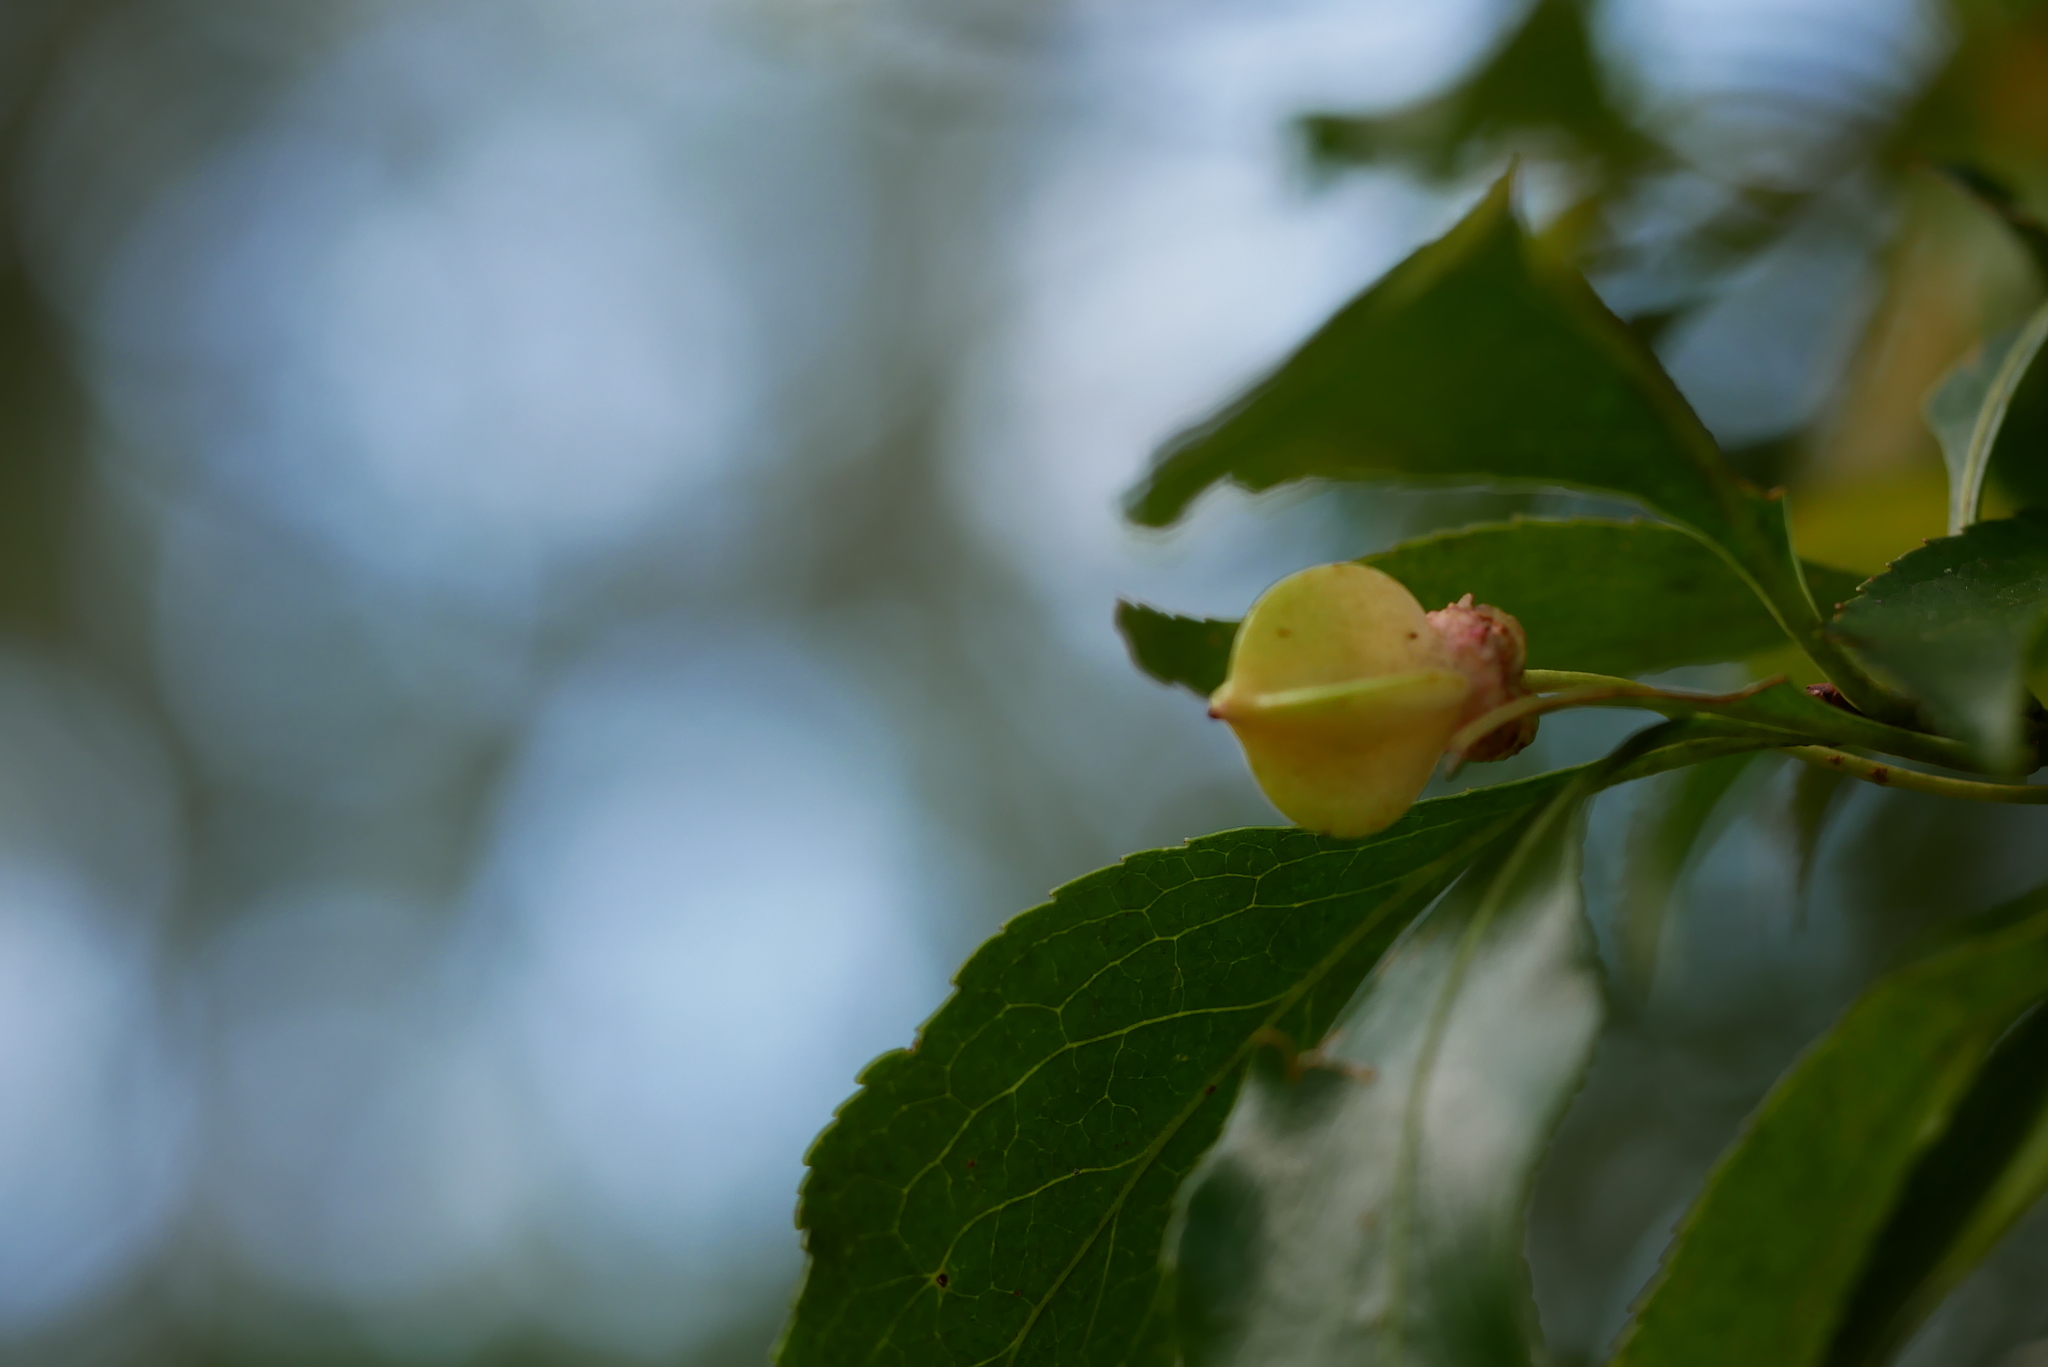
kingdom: Plantae
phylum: Tracheophyta
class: Magnoliopsida
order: Celastrales
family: Celastraceae
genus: Euonymus
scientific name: Euonymus carnosus
